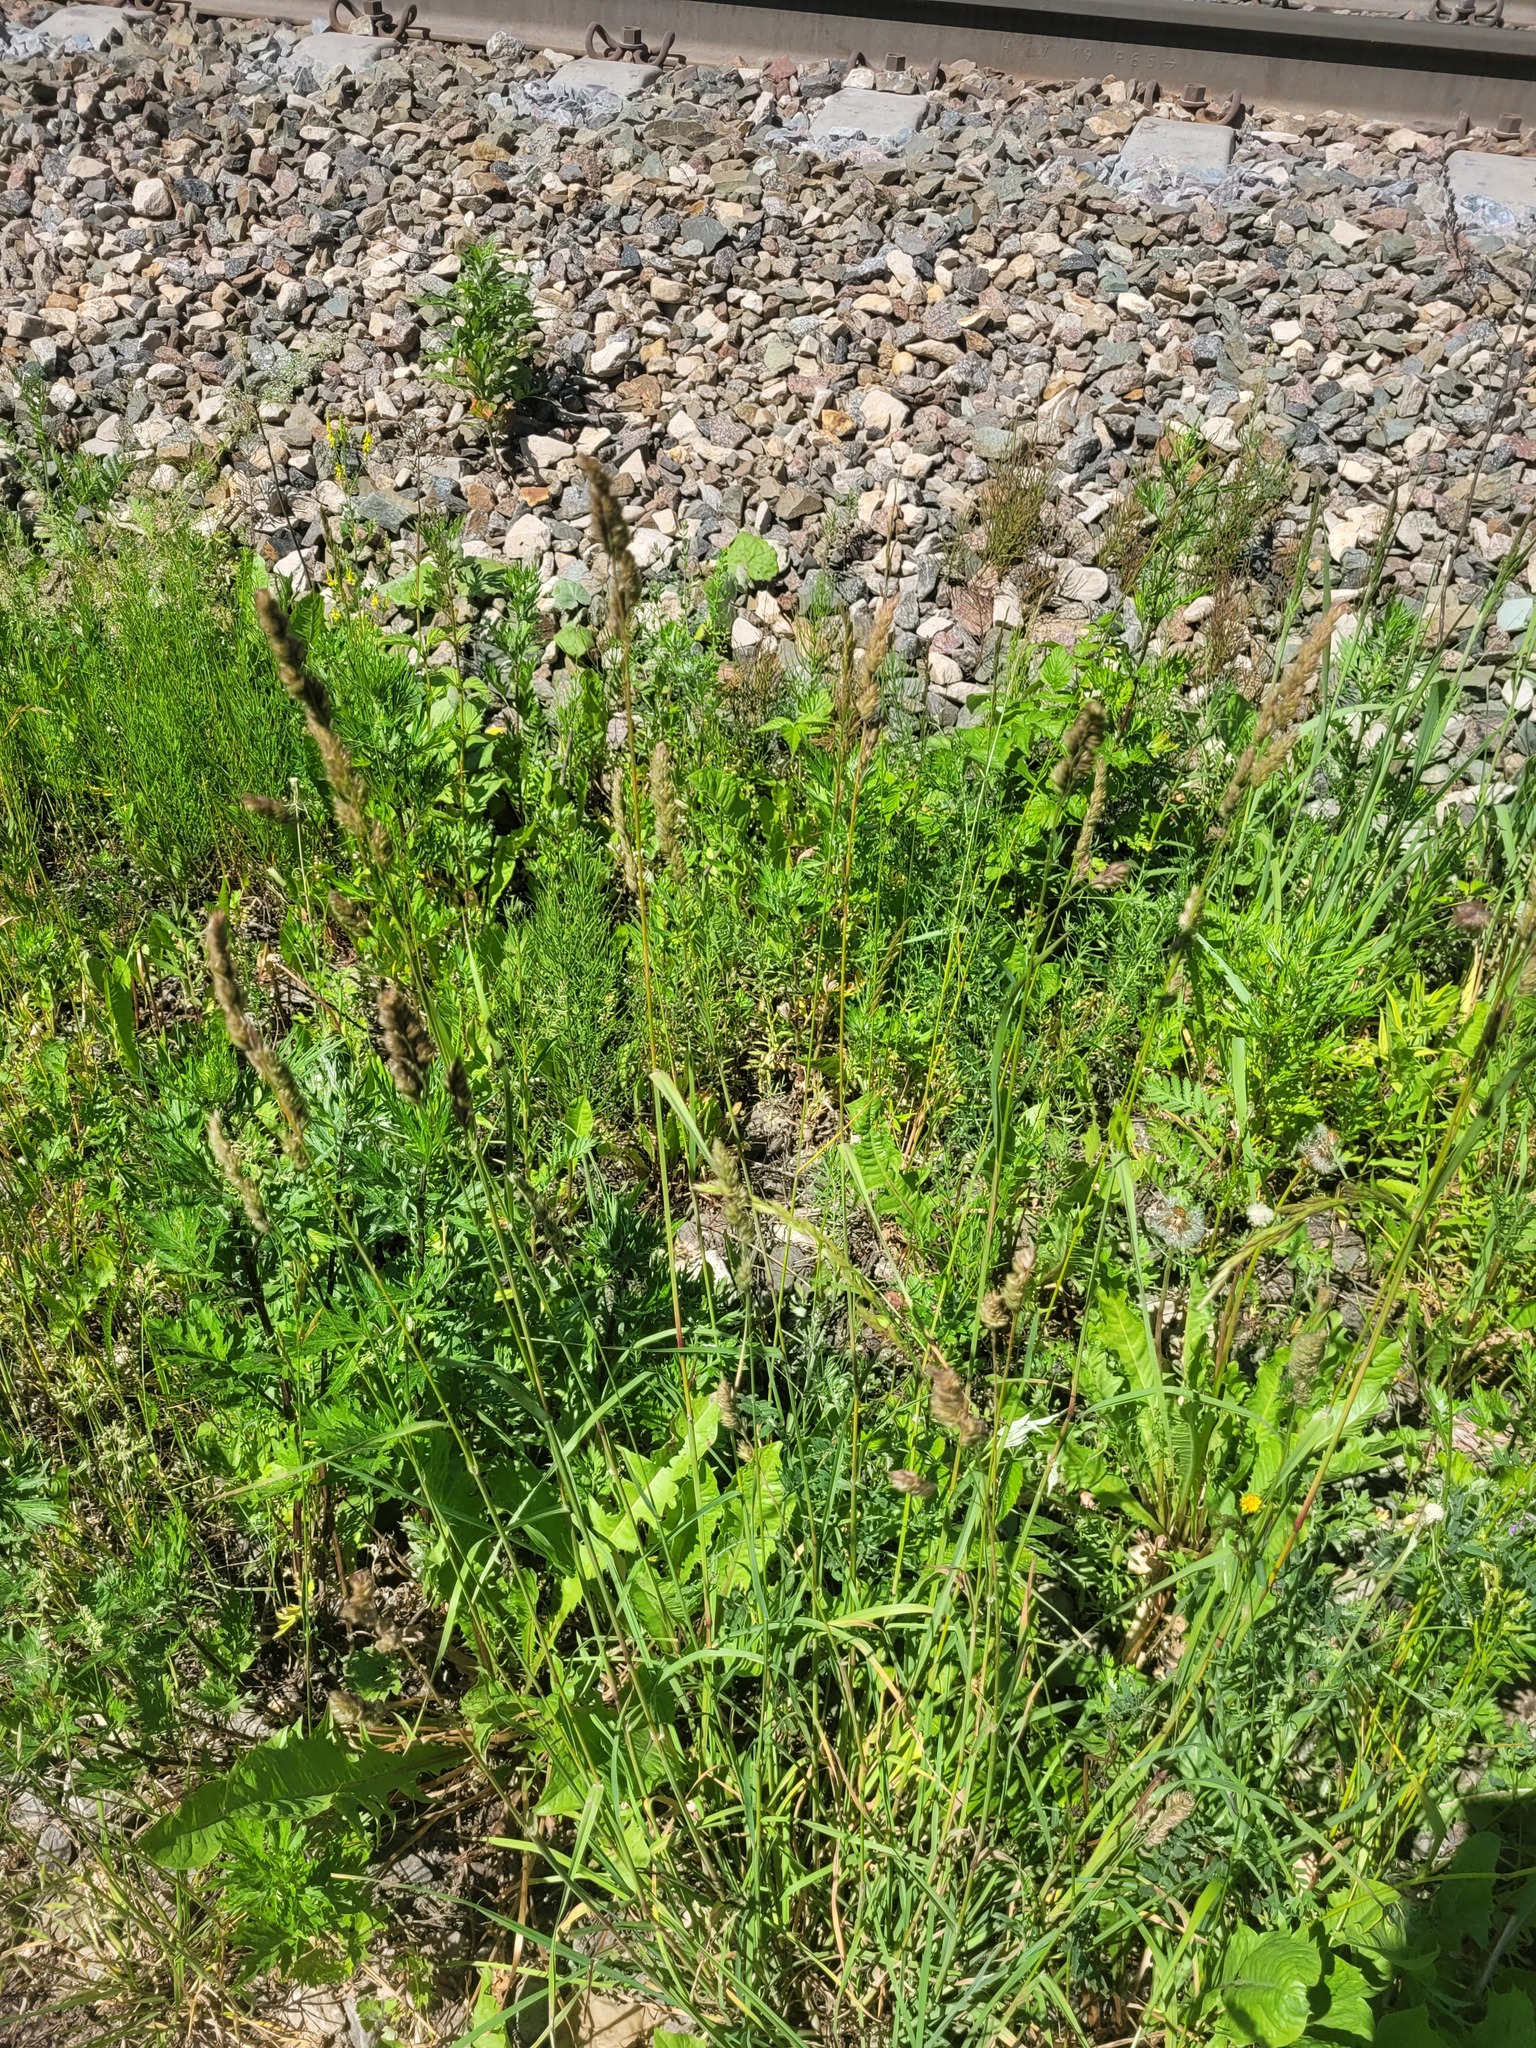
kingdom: Plantae
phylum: Tracheophyta
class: Liliopsida
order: Poales
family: Poaceae
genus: Dactylis
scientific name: Dactylis glomerata
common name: Orchardgrass
